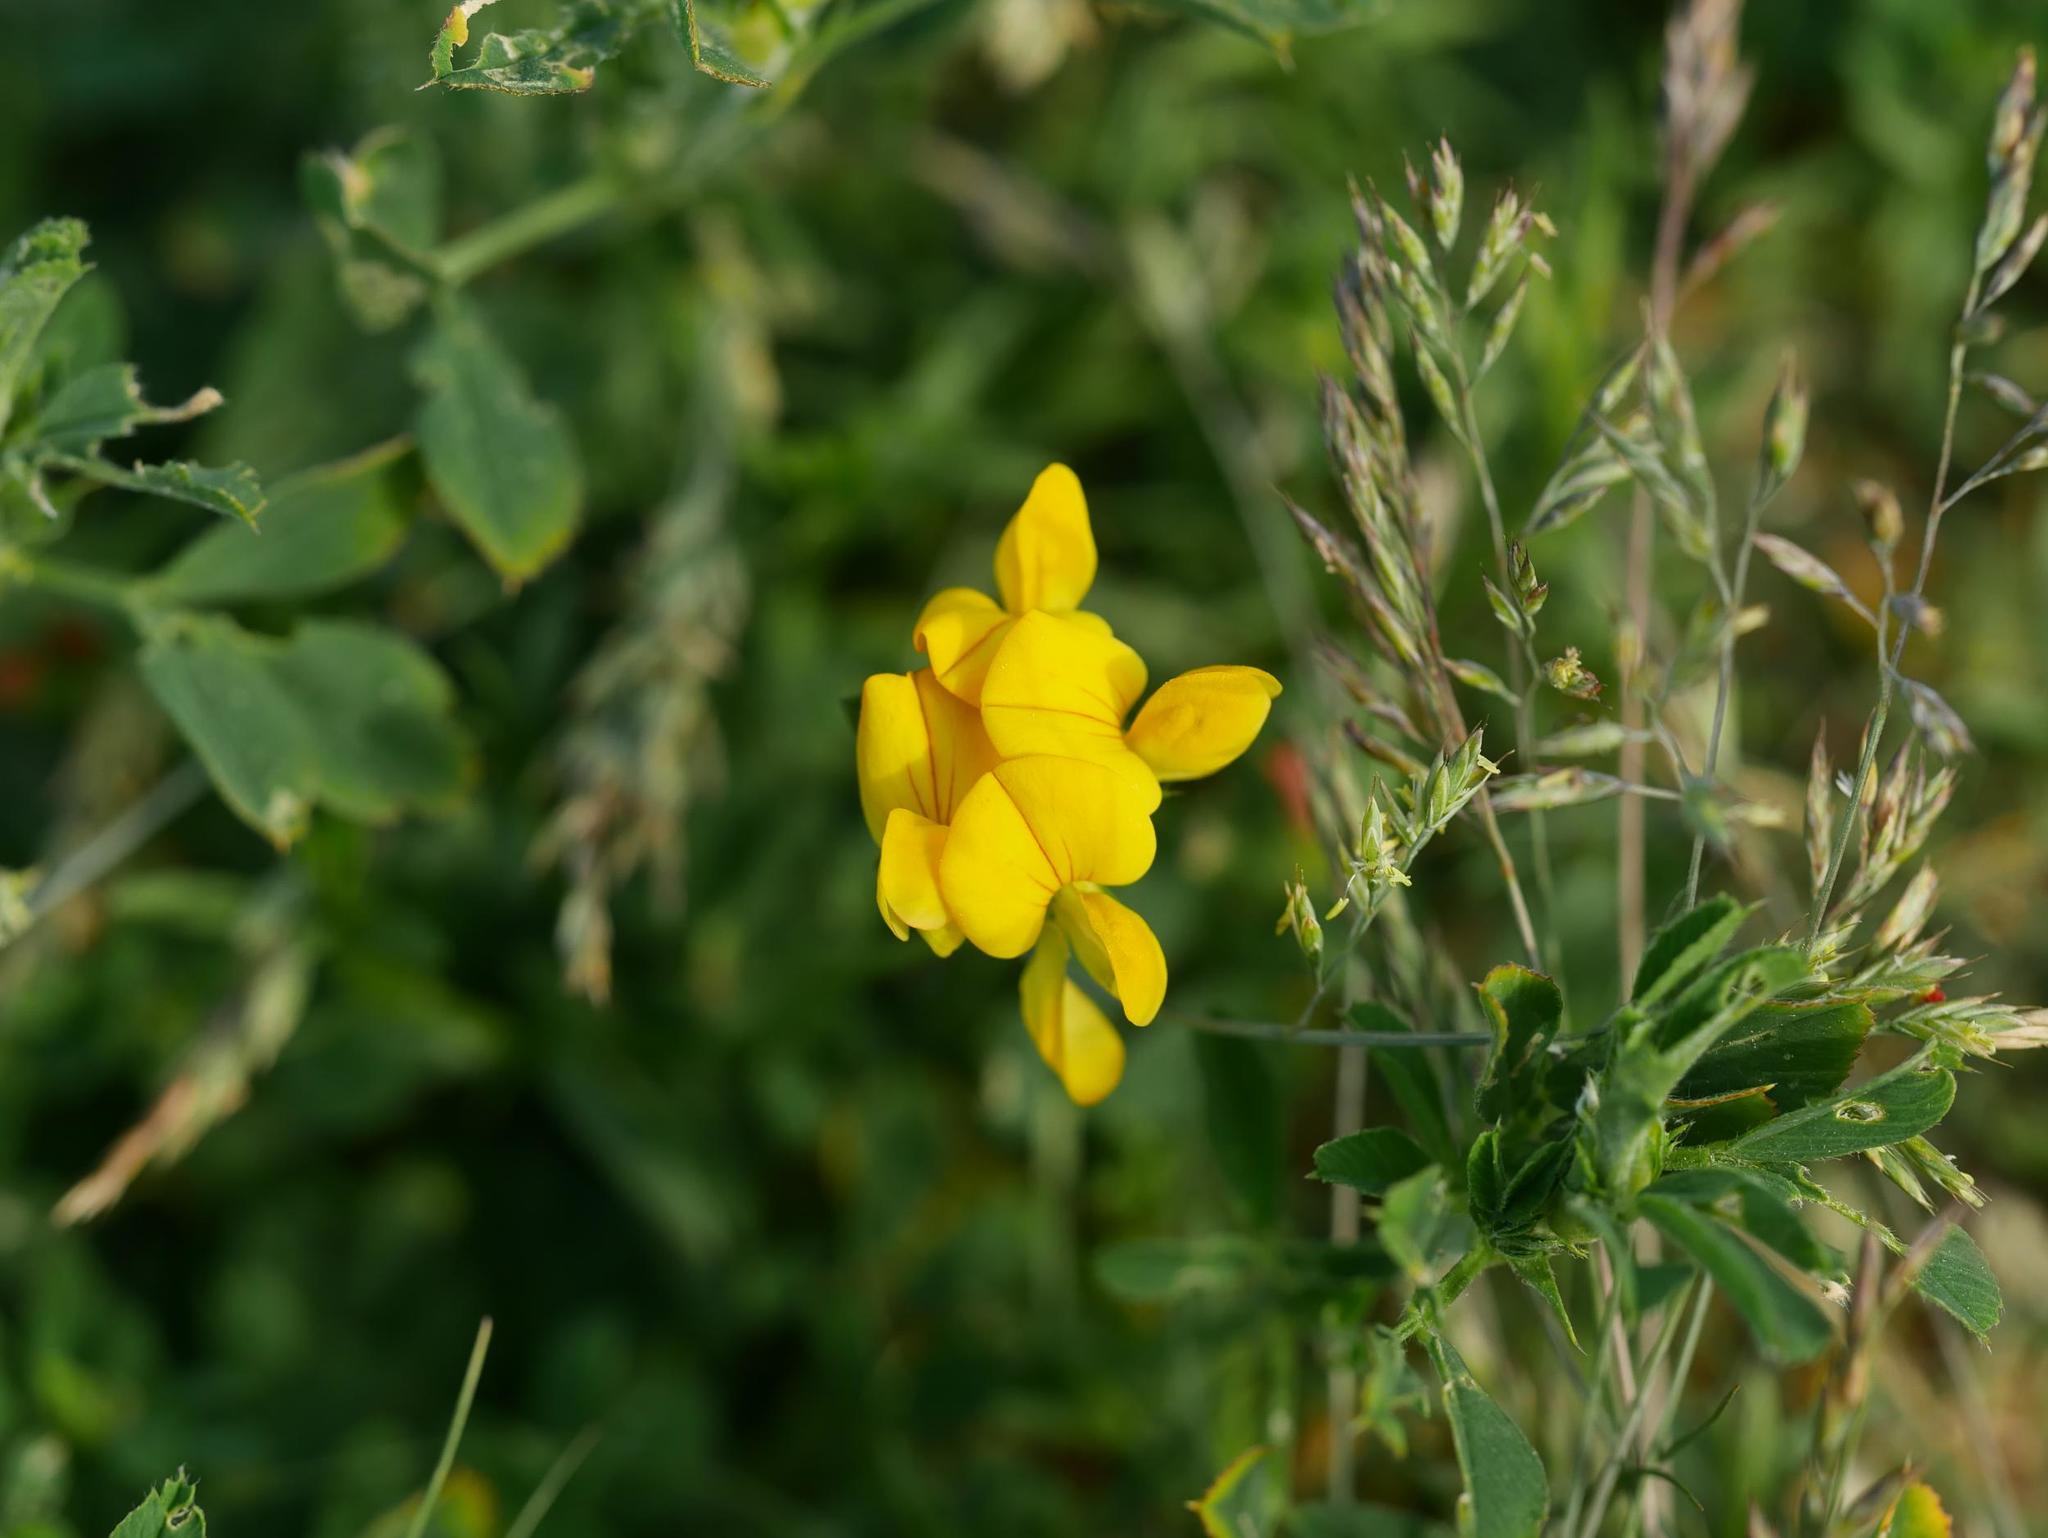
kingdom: Plantae
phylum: Tracheophyta
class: Magnoliopsida
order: Fabales
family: Fabaceae
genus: Lotus
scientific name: Lotus corniculatus
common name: Common bird's-foot-trefoil
